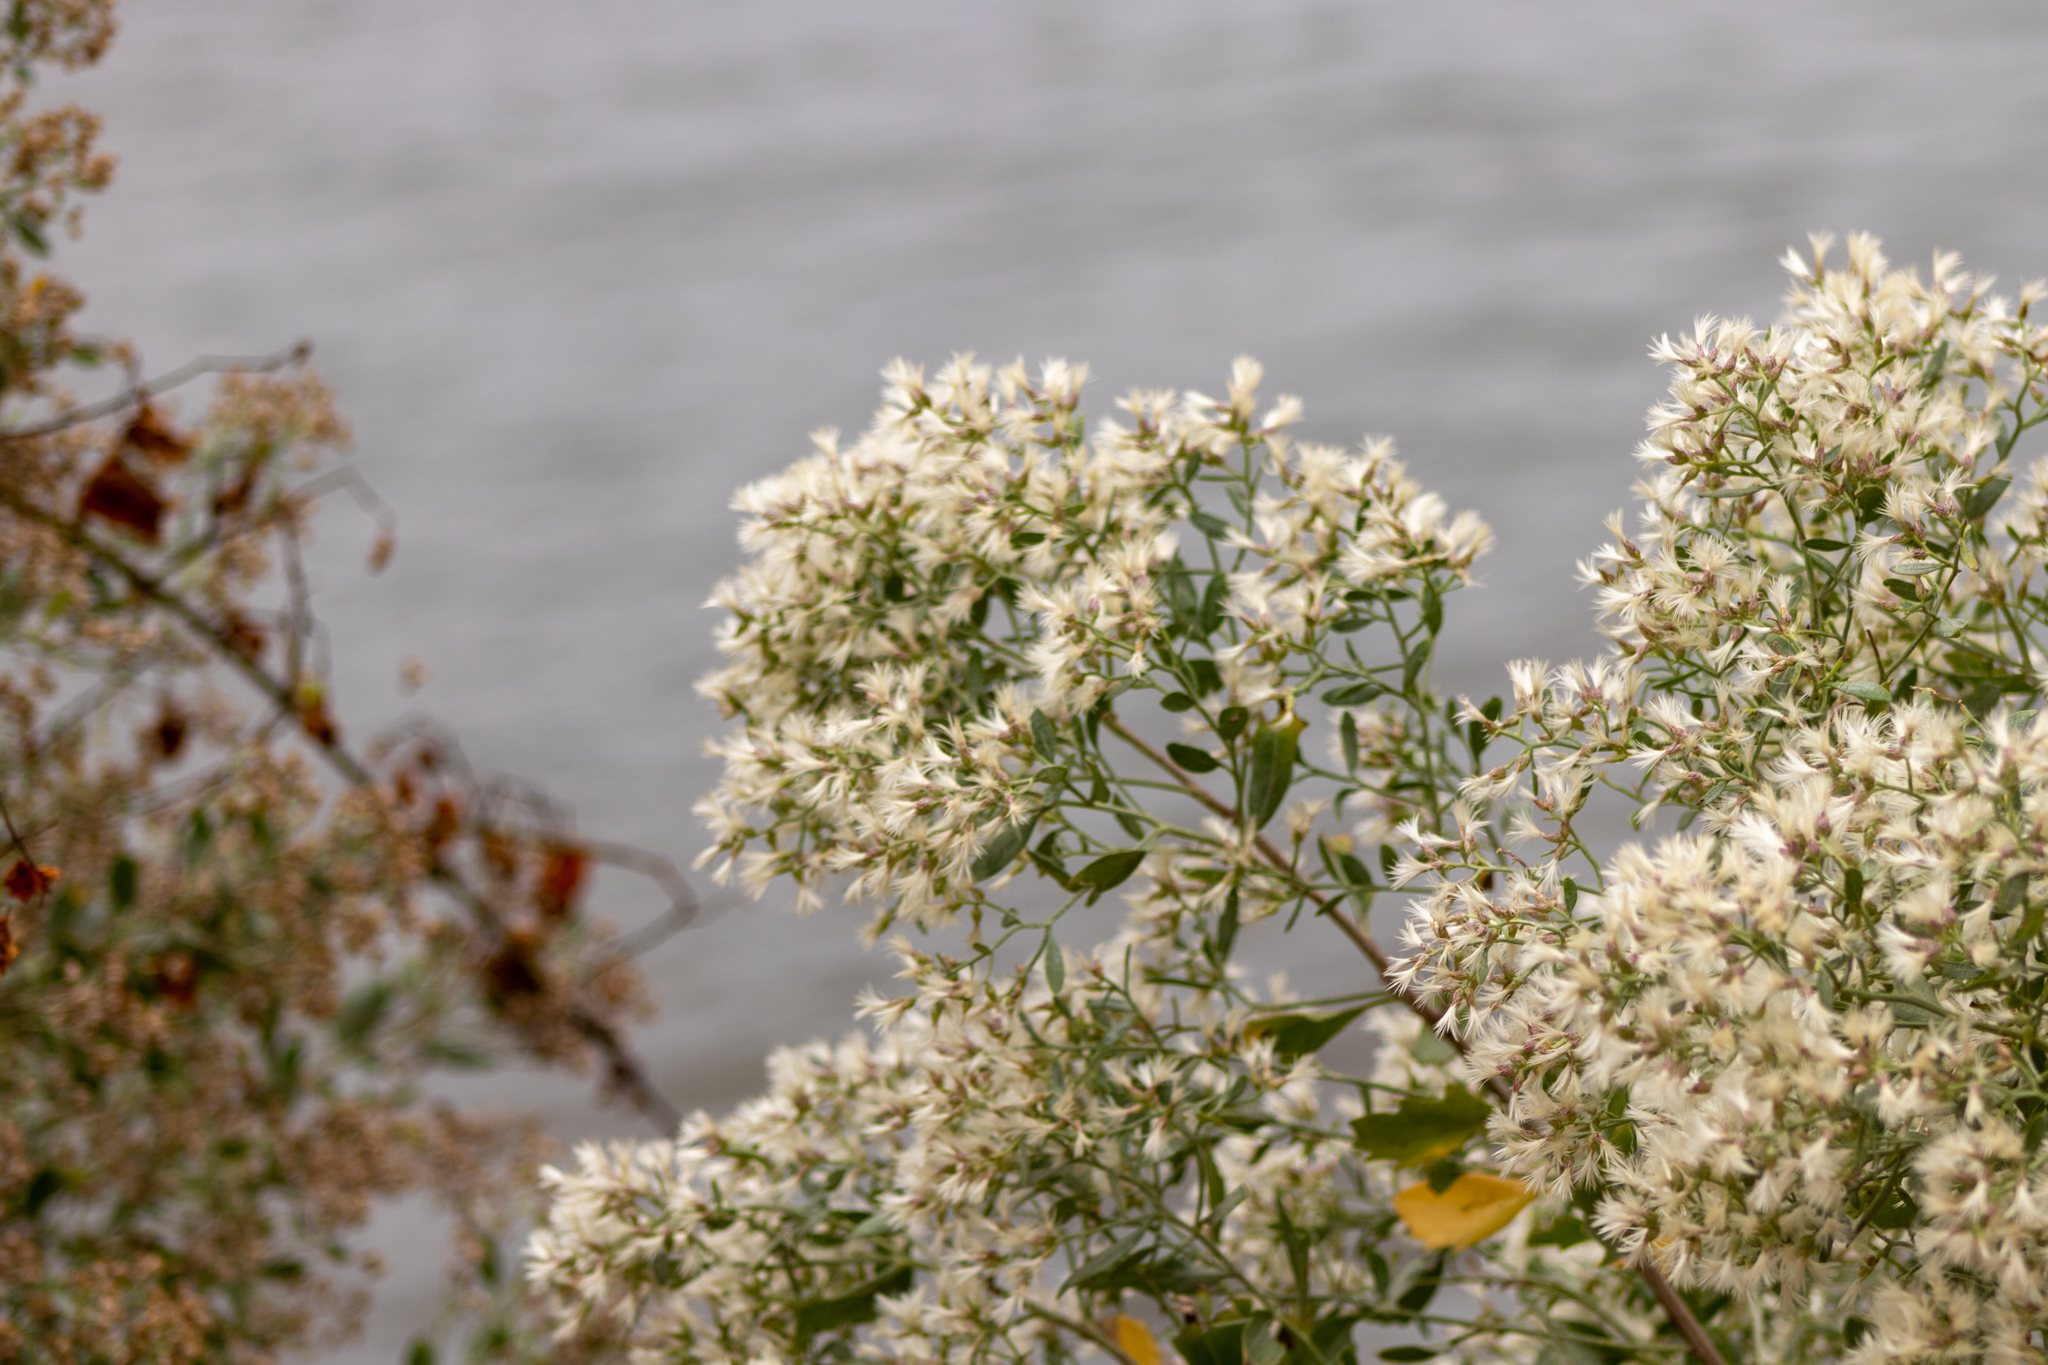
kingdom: Plantae
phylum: Tracheophyta
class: Magnoliopsida
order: Asterales
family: Asteraceae
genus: Baccharis
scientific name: Baccharis halimifolia
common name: Eastern baccharis
